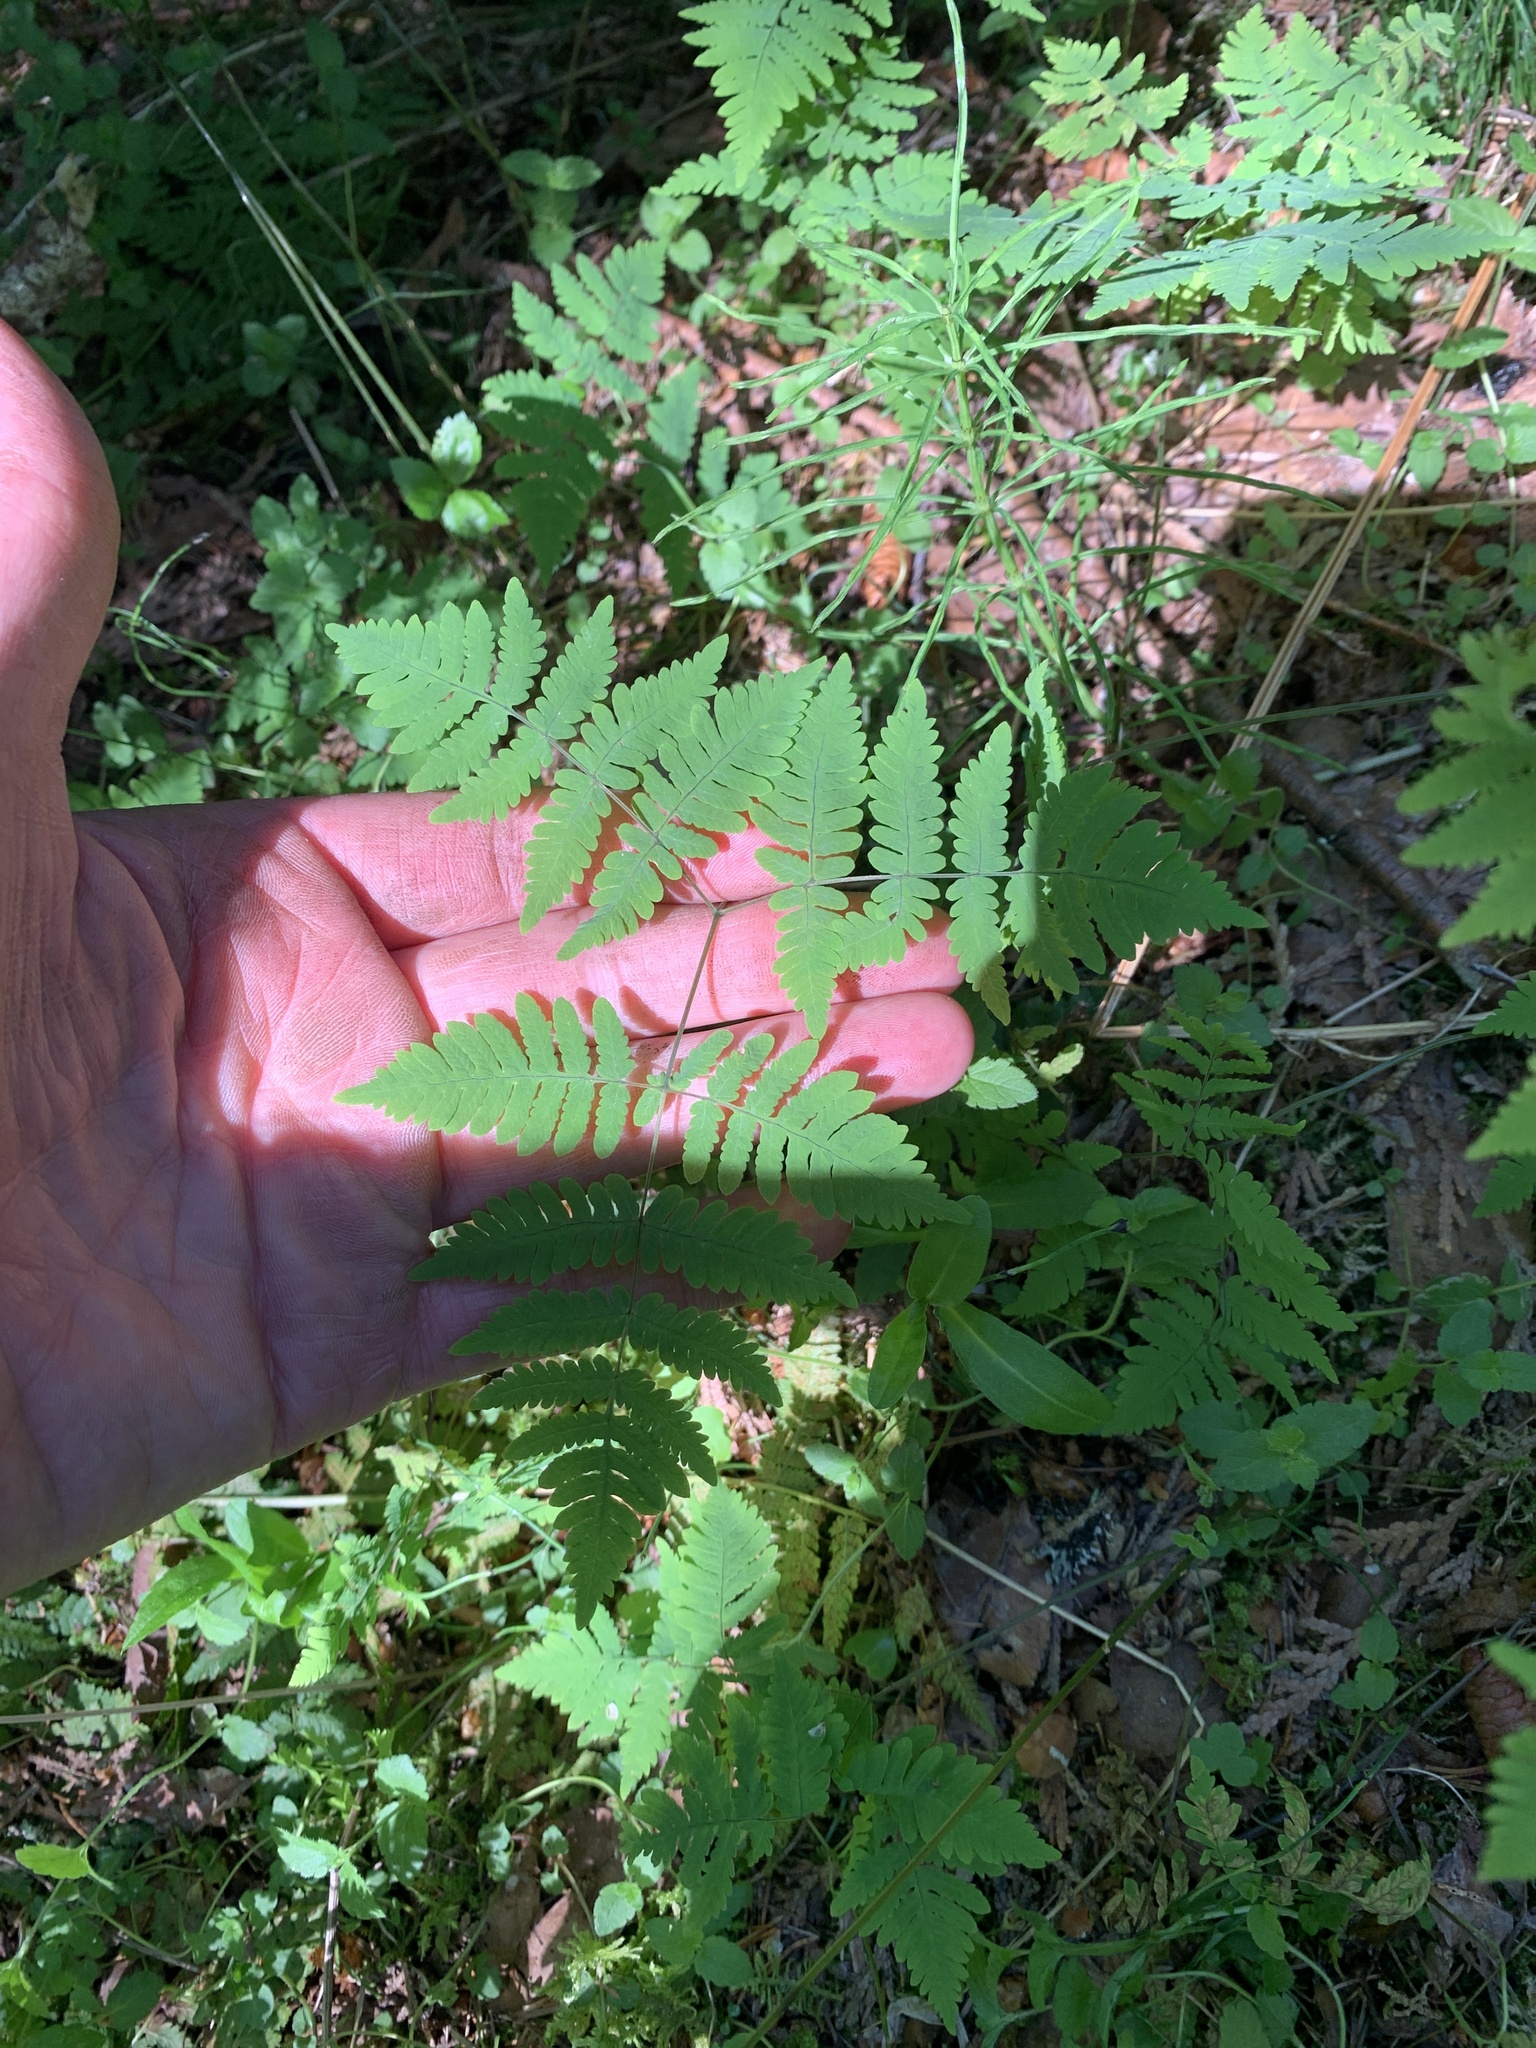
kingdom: Plantae
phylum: Tracheophyta
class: Polypodiopsida
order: Polypodiales
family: Cystopteridaceae
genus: Gymnocarpium
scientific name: Gymnocarpium dryopteris
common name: Oak fern
